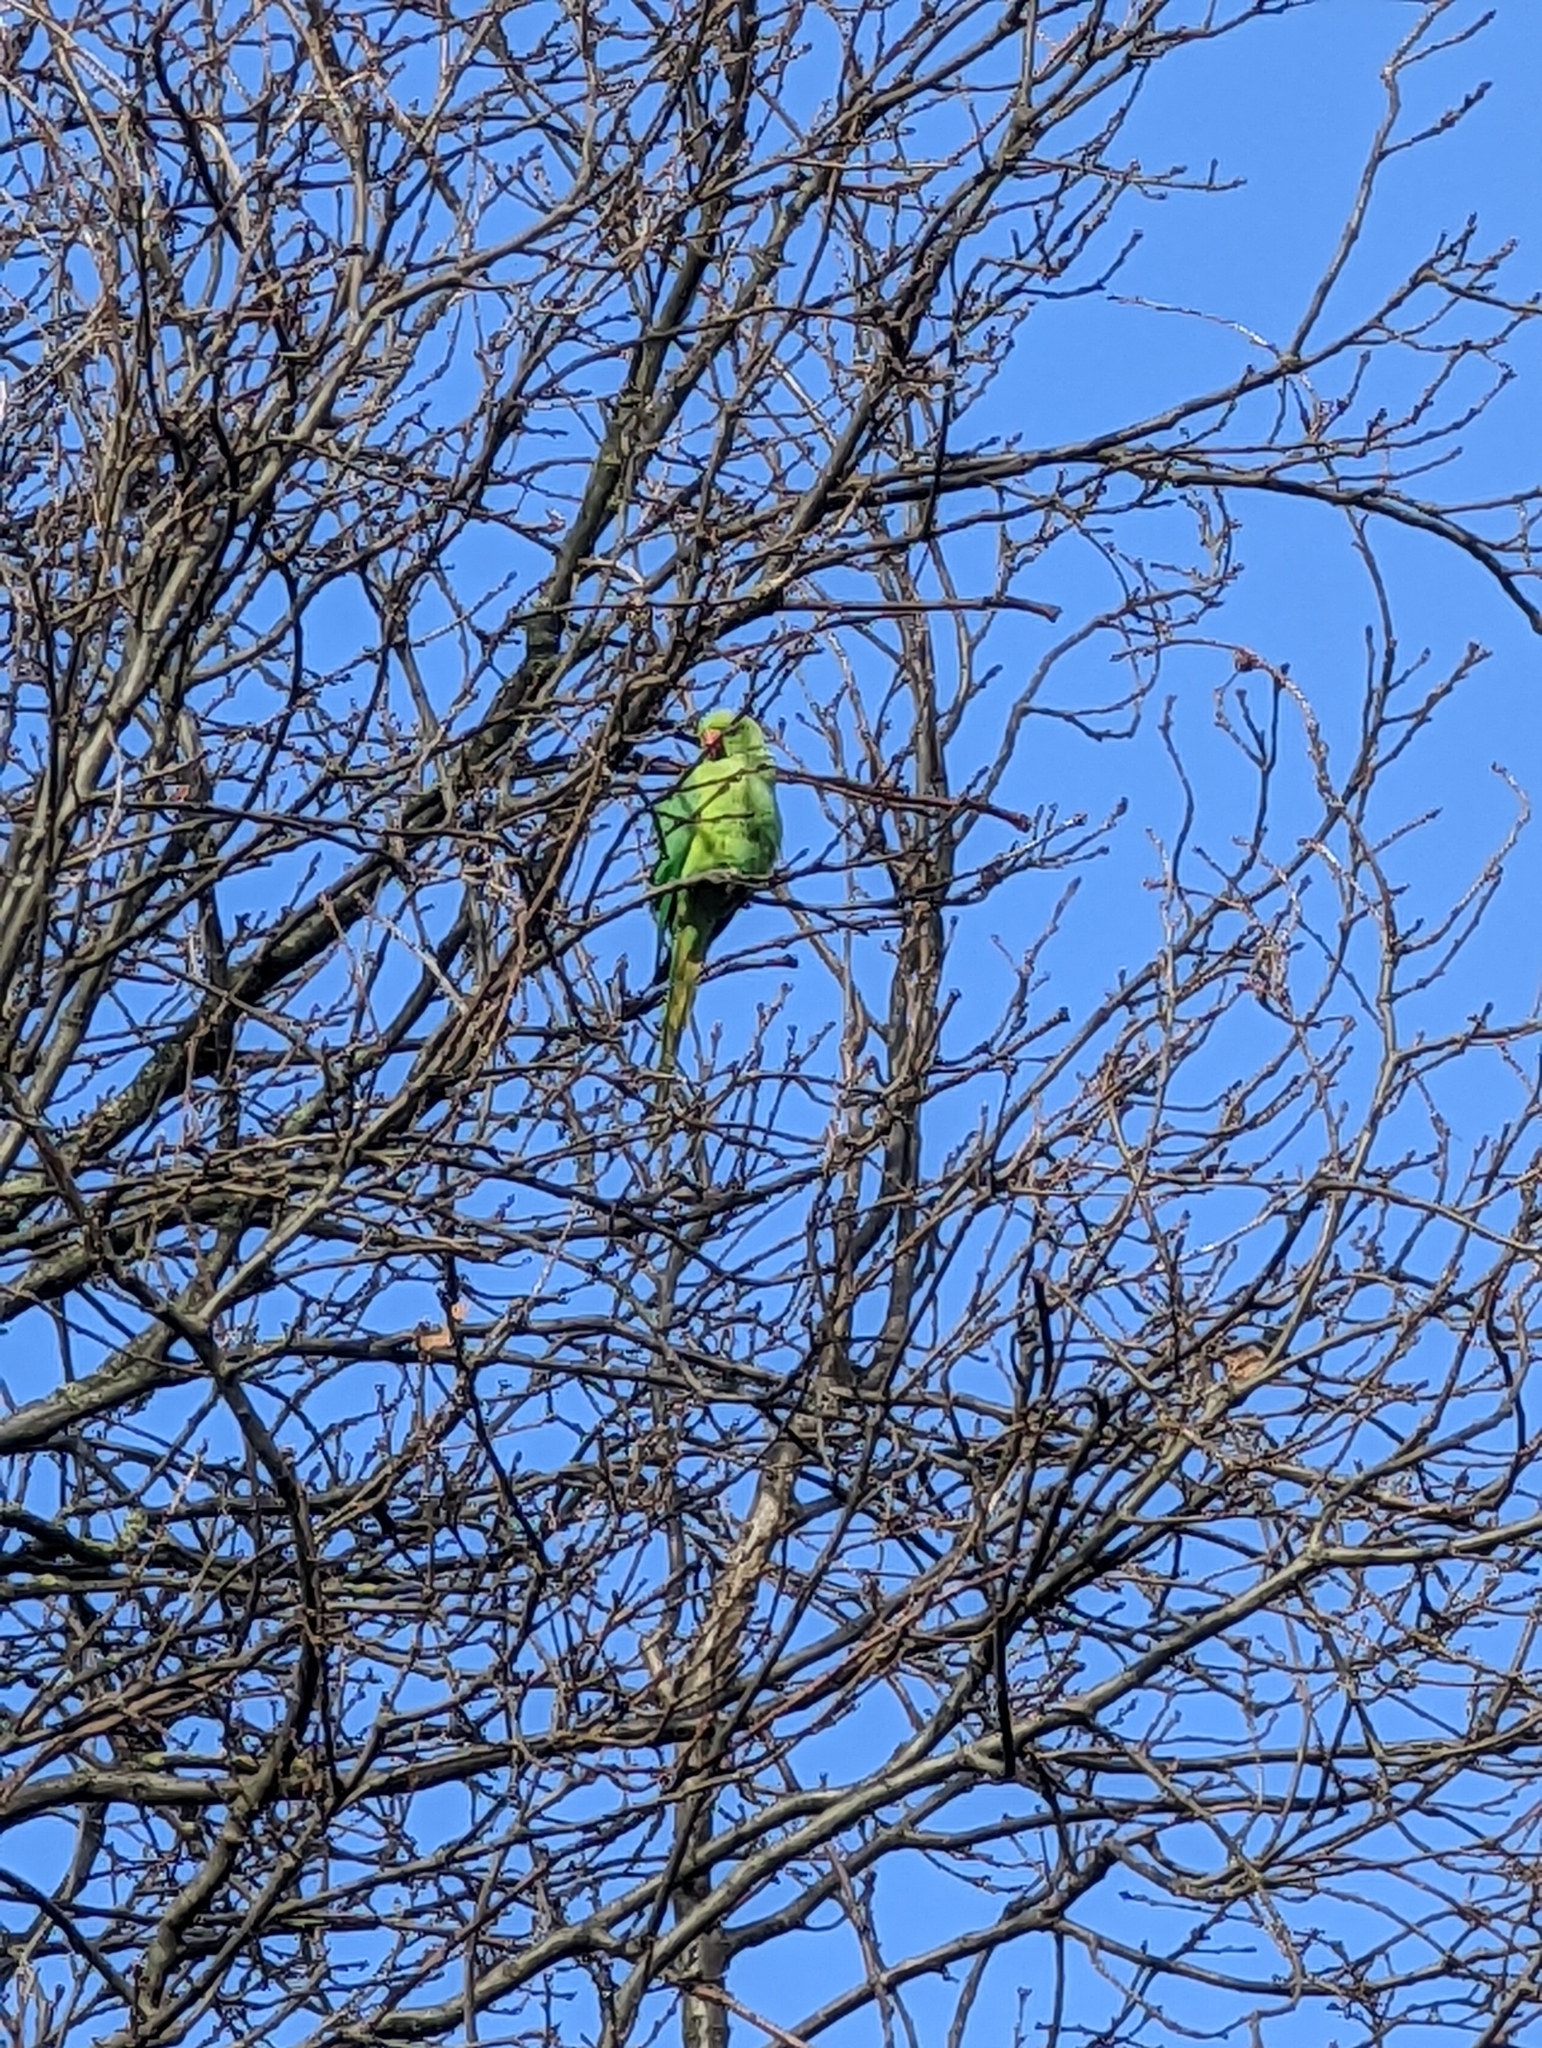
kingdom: Animalia
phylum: Chordata
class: Aves
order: Psittaciformes
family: Psittacidae
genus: Psittacula
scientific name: Psittacula krameri
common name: Rose-ringed parakeet
